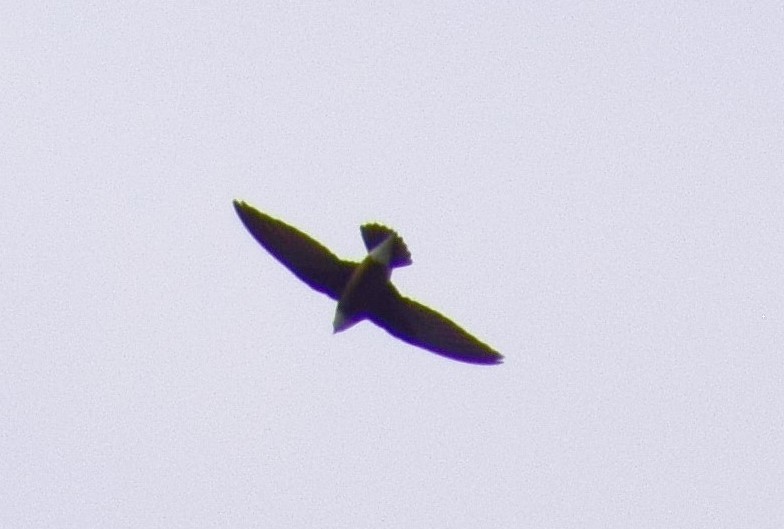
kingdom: Animalia
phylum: Chordata
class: Aves
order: Apodiformes
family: Apodidae
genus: Hirundapus
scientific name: Hirundapus caudacutus
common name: White-throated needletail
